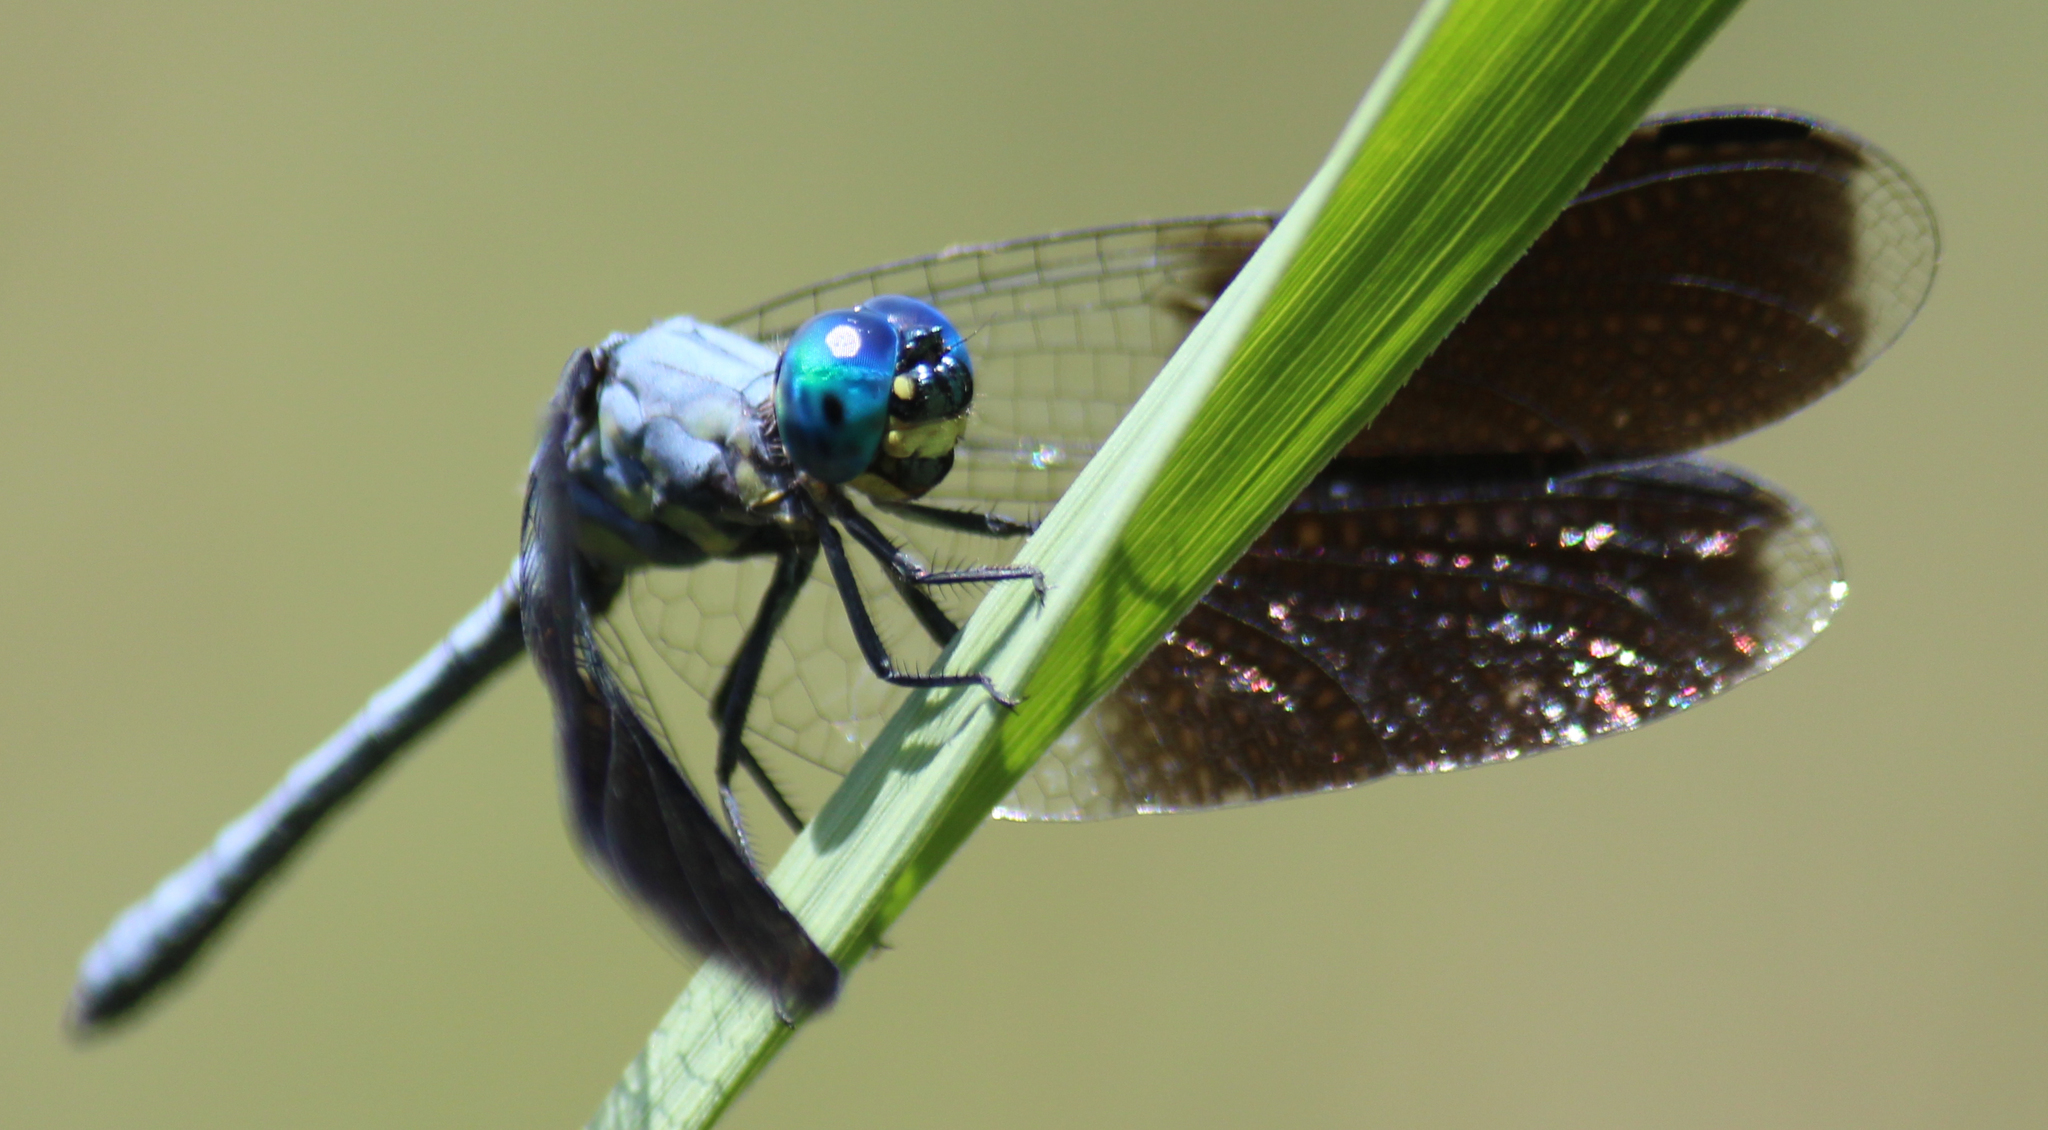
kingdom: Animalia
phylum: Arthropoda
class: Insecta
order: Odonata
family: Libellulidae
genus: Tetrathemis
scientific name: Tetrathemis polleni
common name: Black-splashed elf
